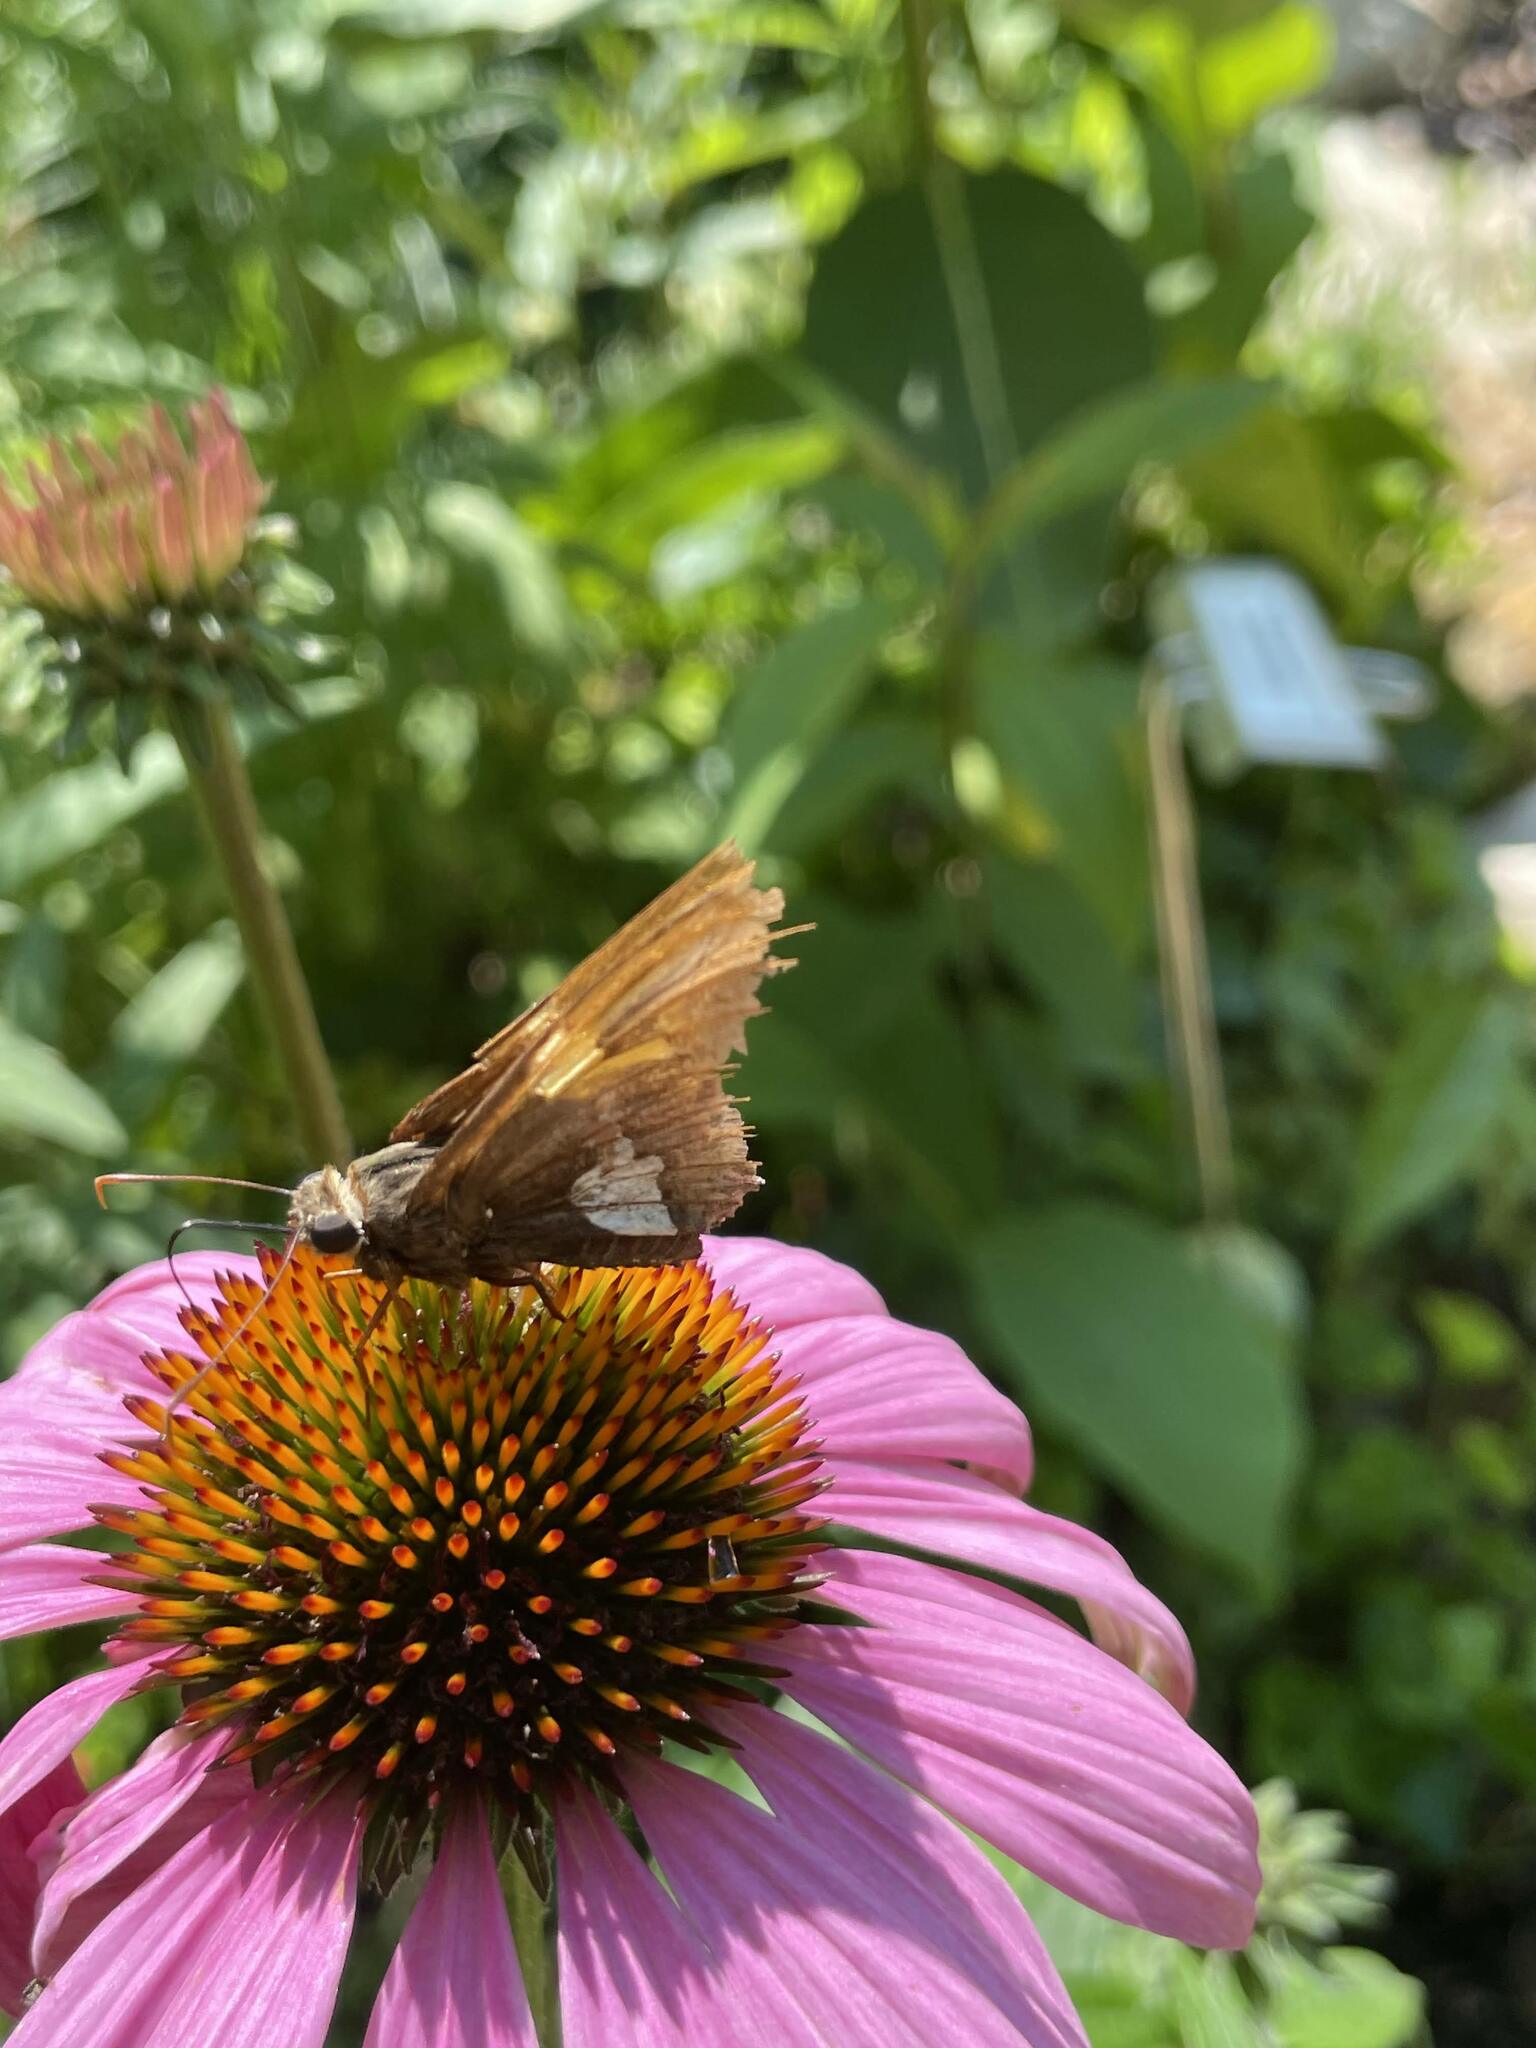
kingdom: Animalia
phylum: Arthropoda
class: Insecta
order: Lepidoptera
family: Hesperiidae
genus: Epargyreus
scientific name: Epargyreus clarus
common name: Silver-spotted skipper
